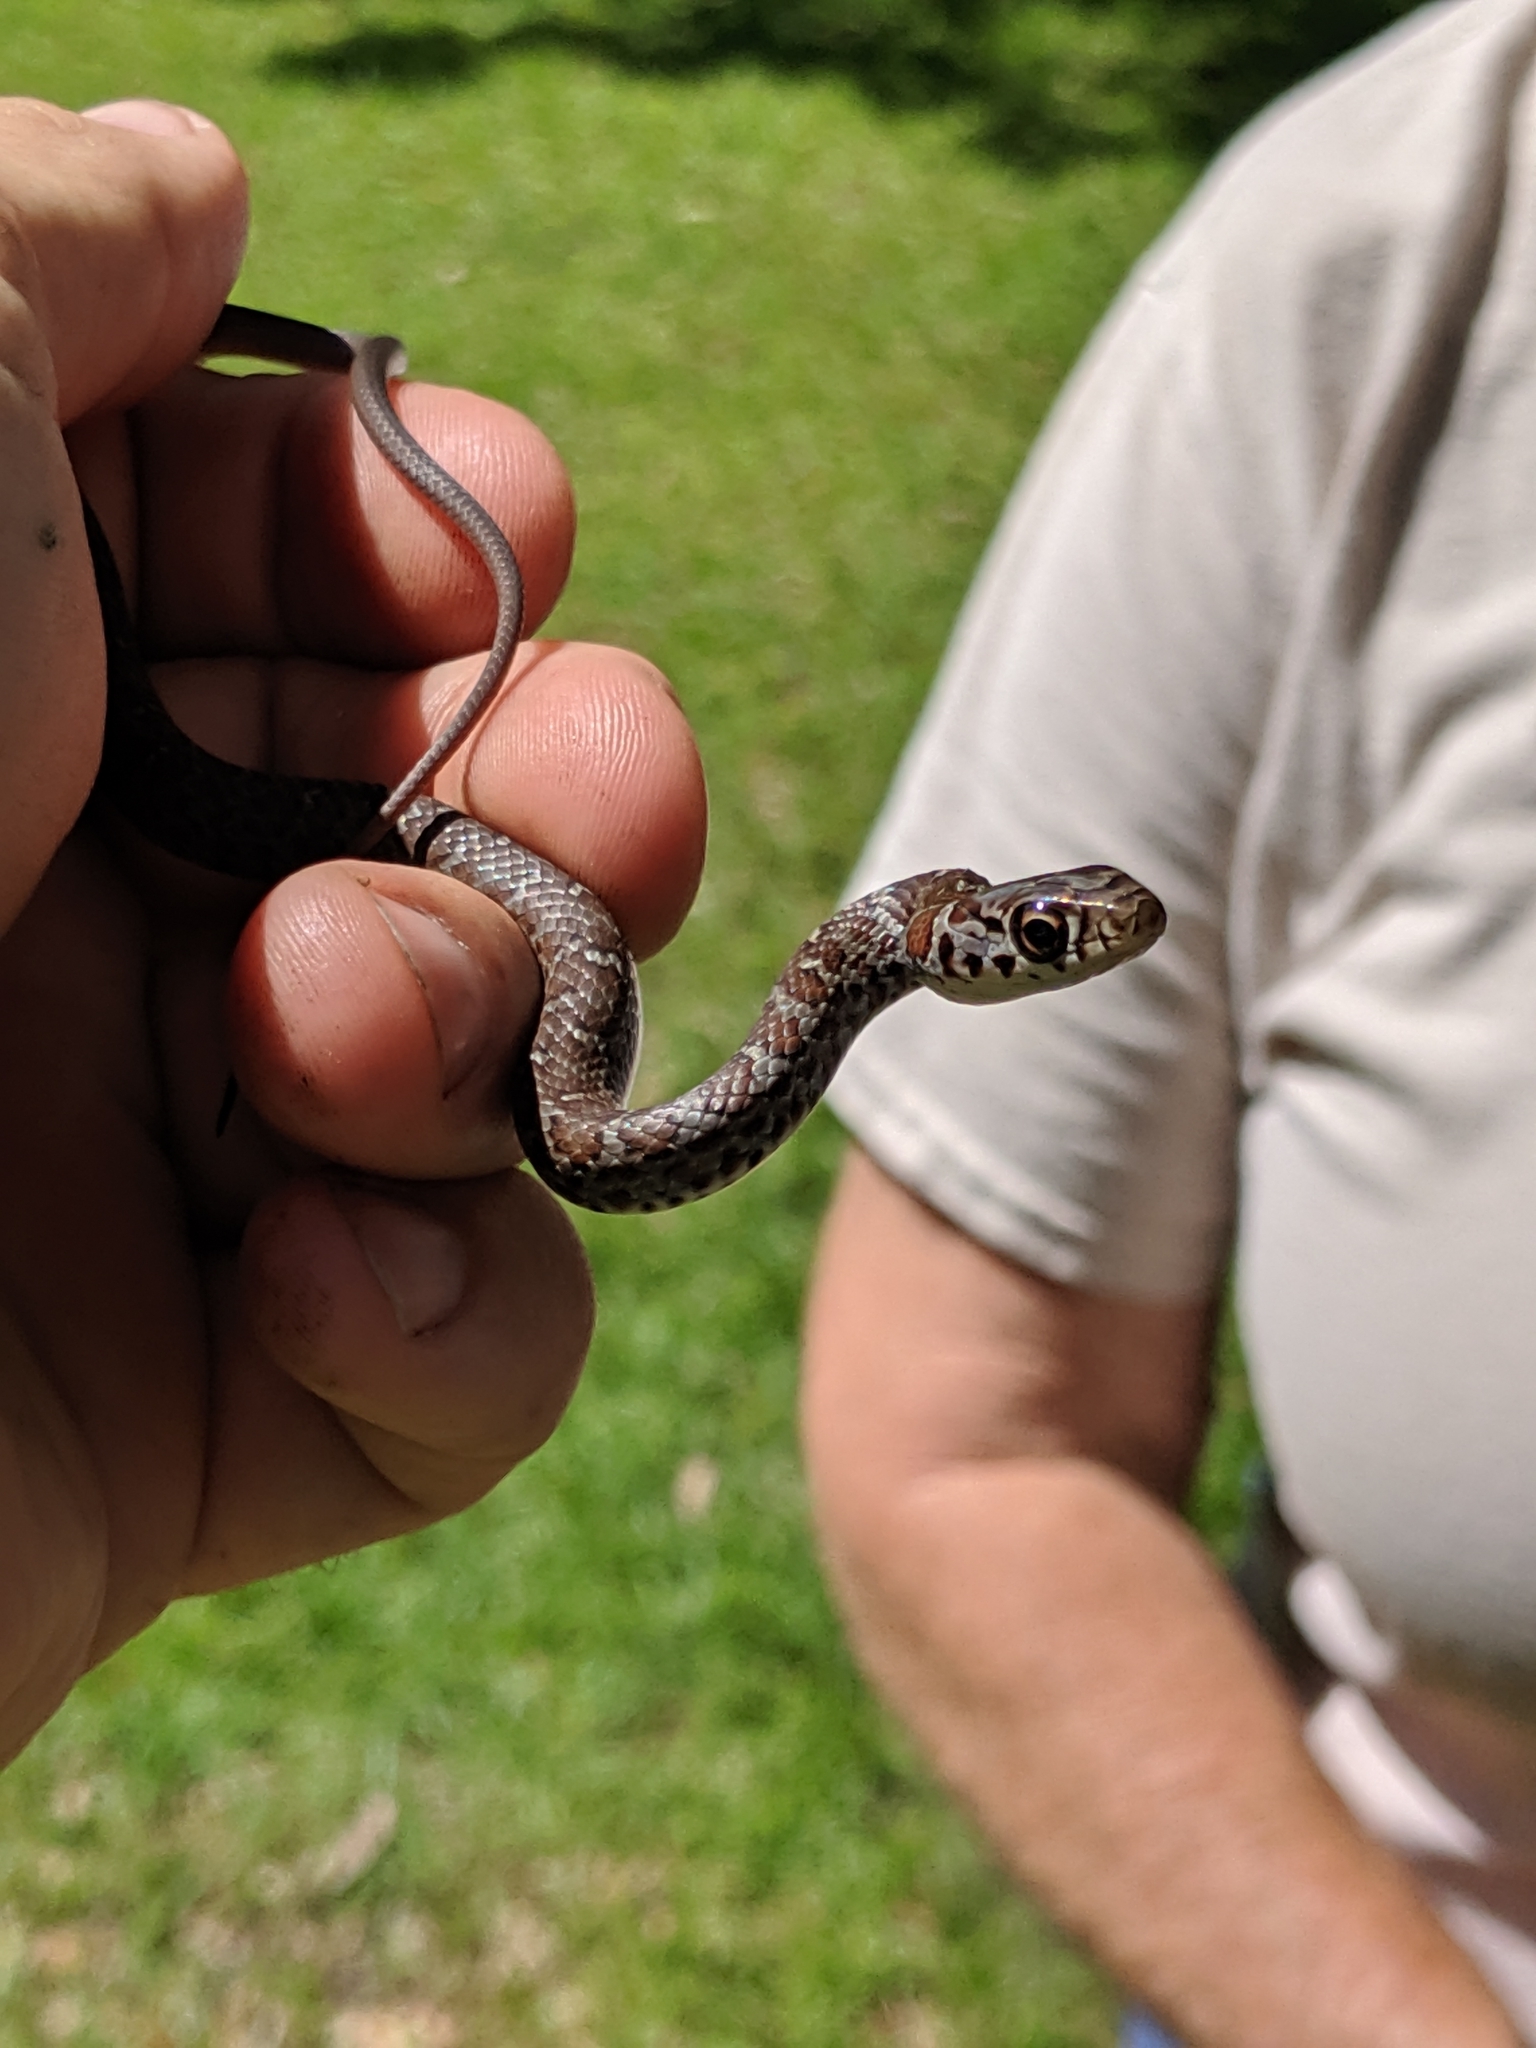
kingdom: Animalia
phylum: Chordata
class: Squamata
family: Colubridae
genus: Coluber
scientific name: Coluber constrictor
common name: Eastern racer
